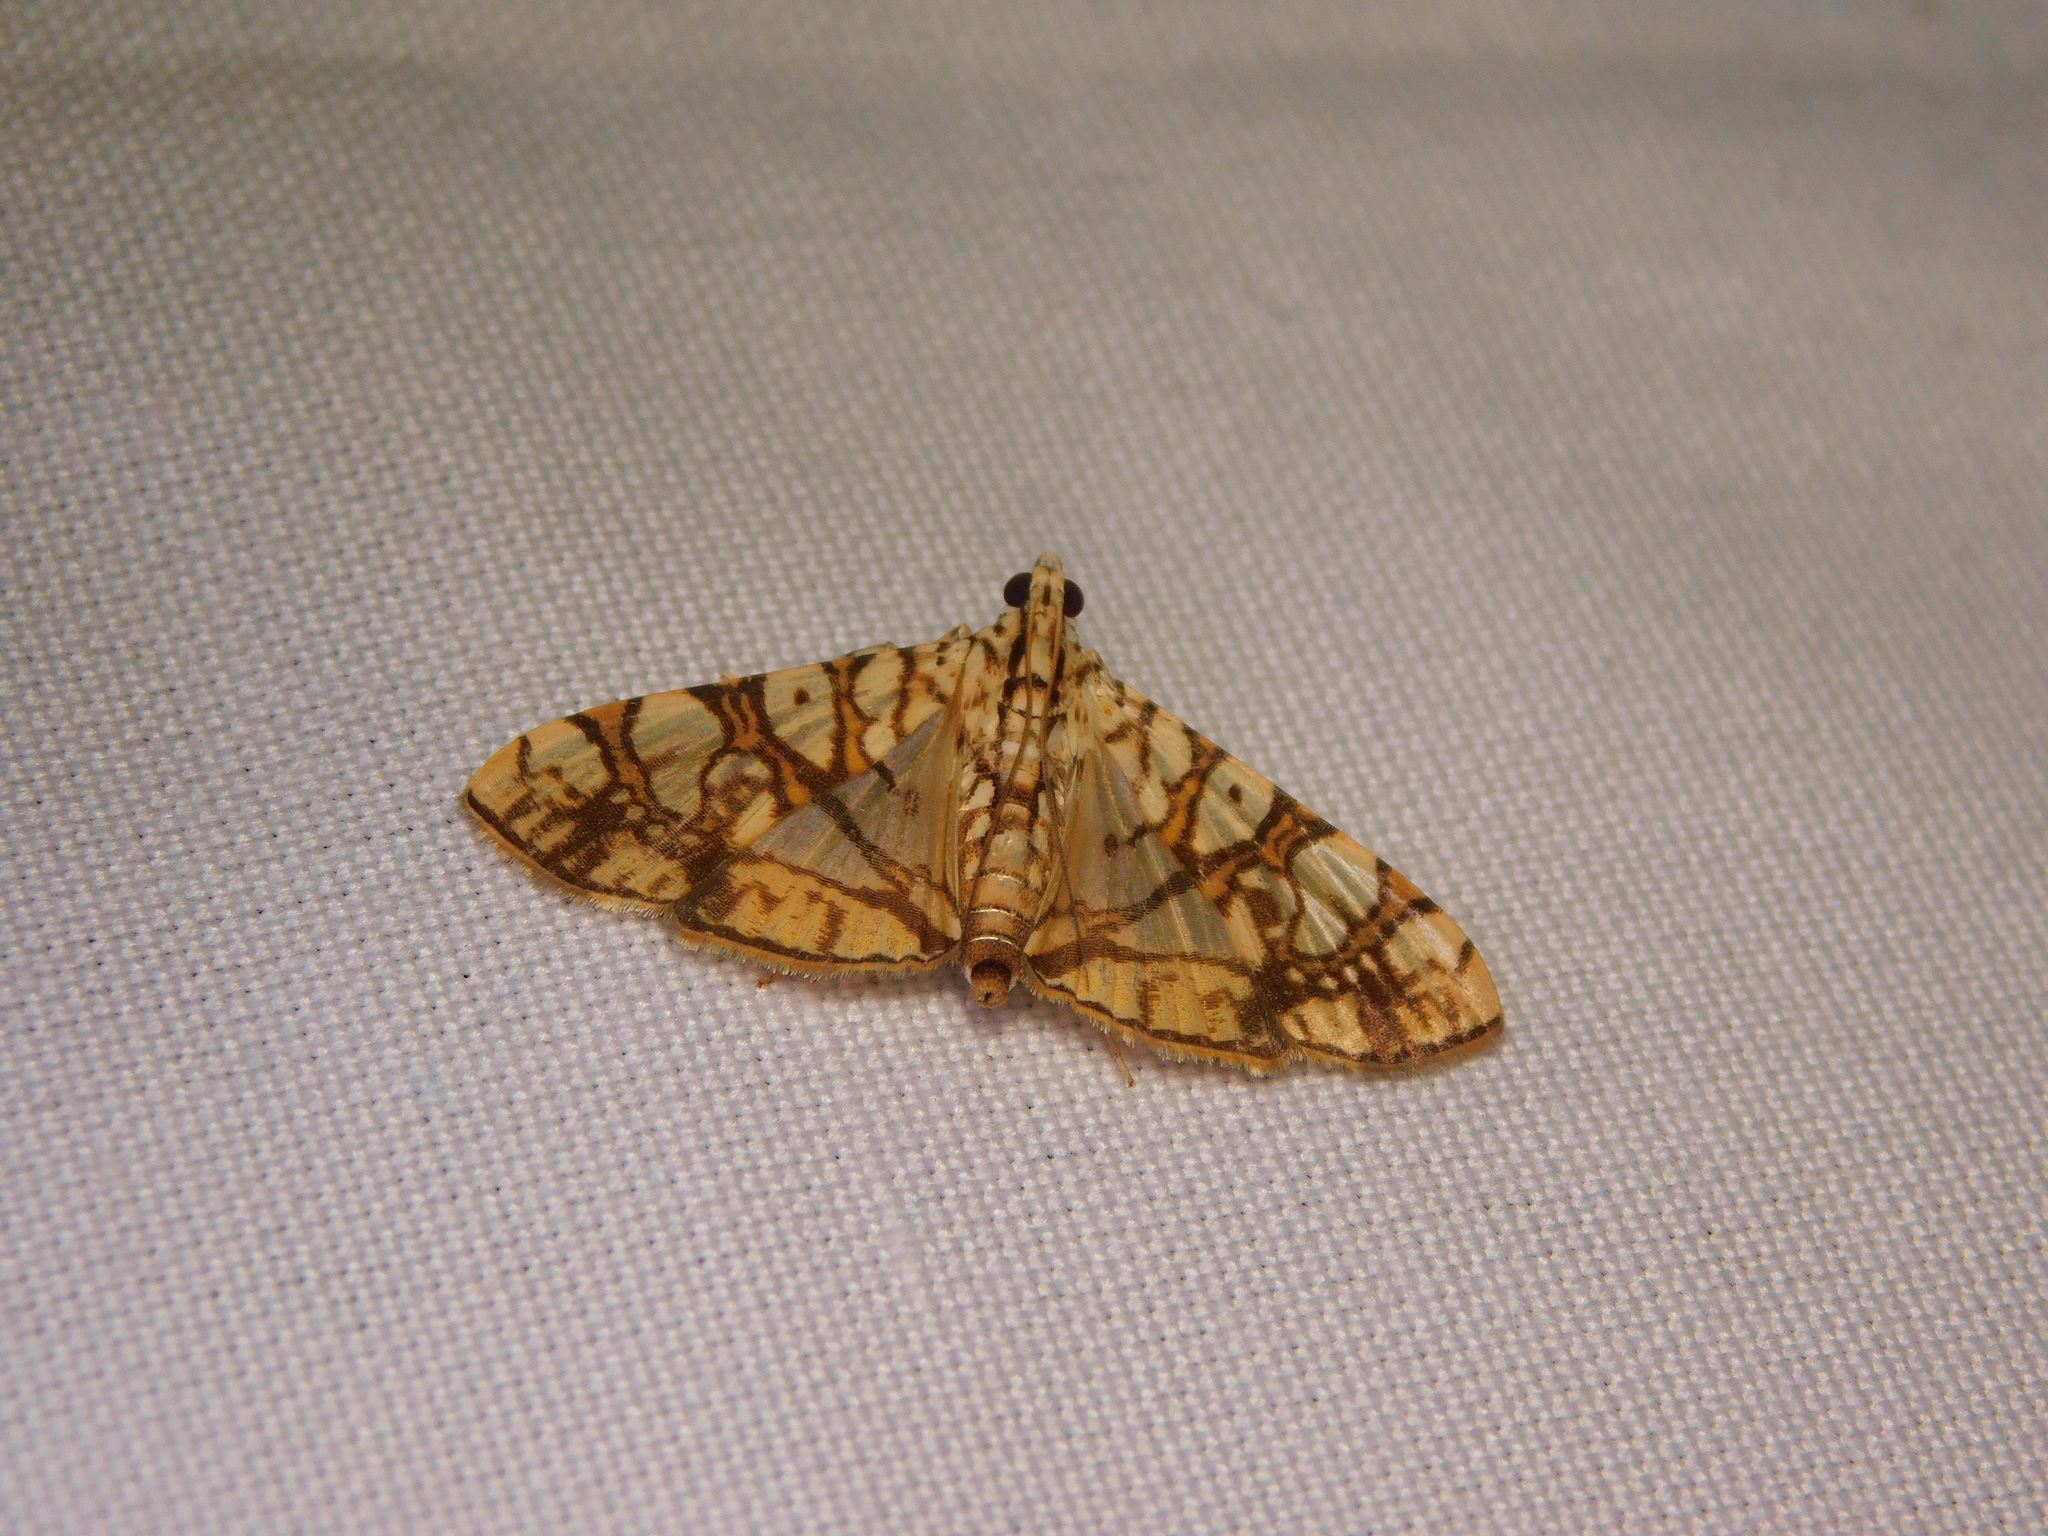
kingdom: Animalia
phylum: Arthropoda
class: Insecta
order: Lepidoptera
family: Crambidae
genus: Glyphodes
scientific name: Glyphodes caesalis
